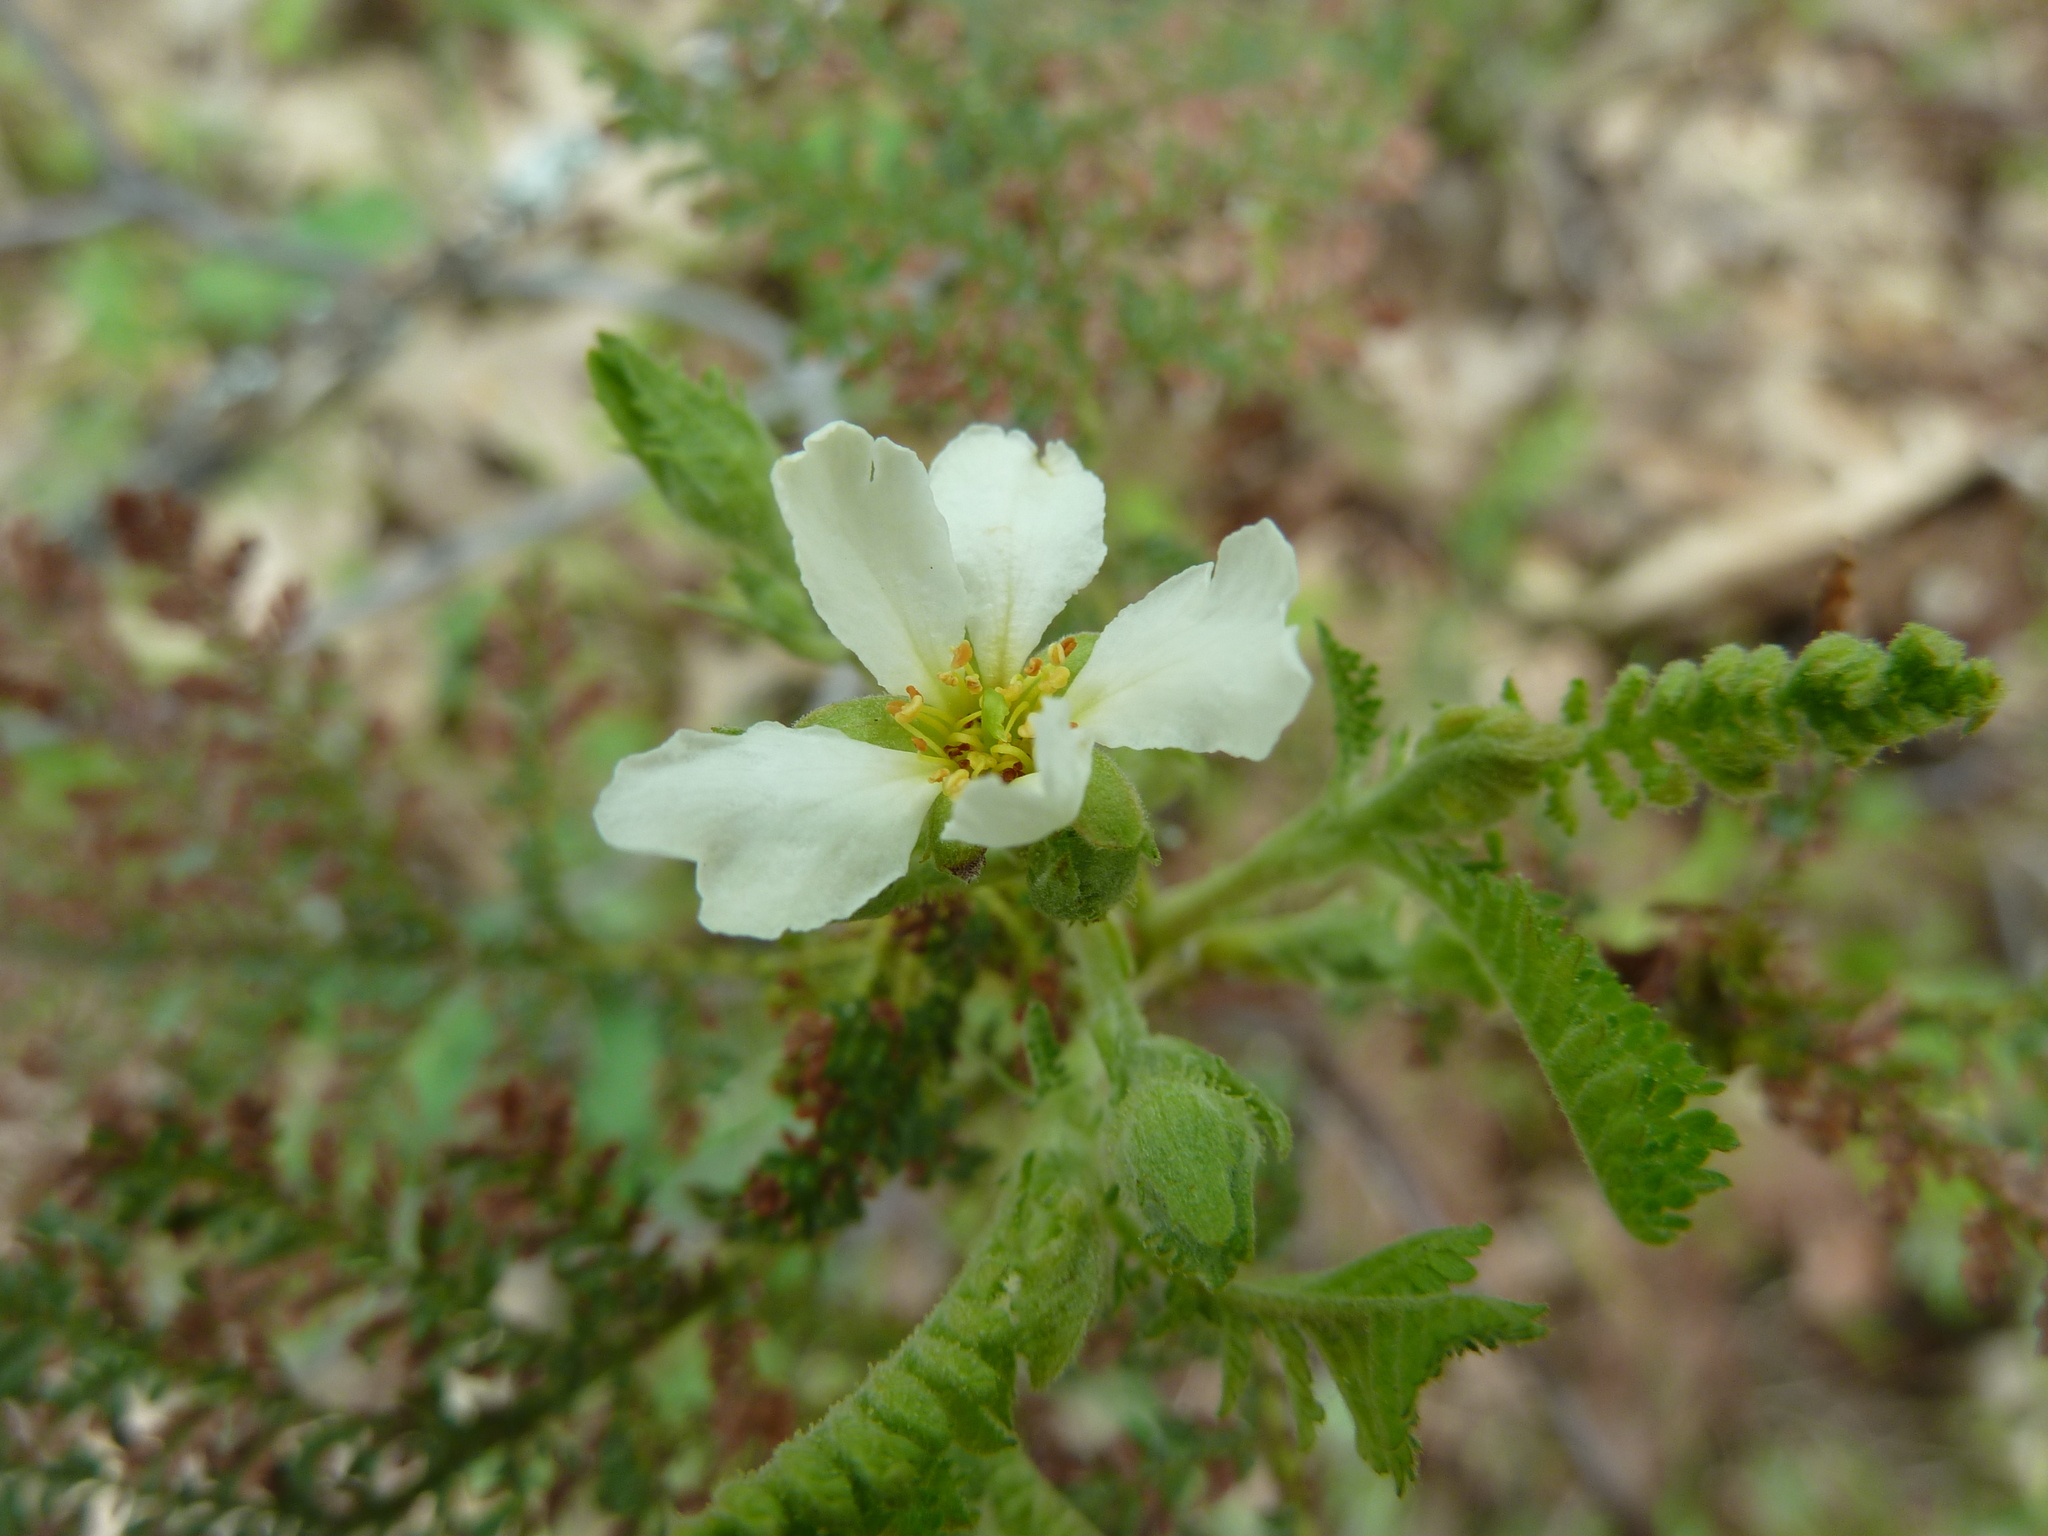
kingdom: Plantae
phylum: Tracheophyta
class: Magnoliopsida
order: Rosales
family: Rosaceae
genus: Chamaebatia
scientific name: Chamaebatia foliolosa
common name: Mountain misery
